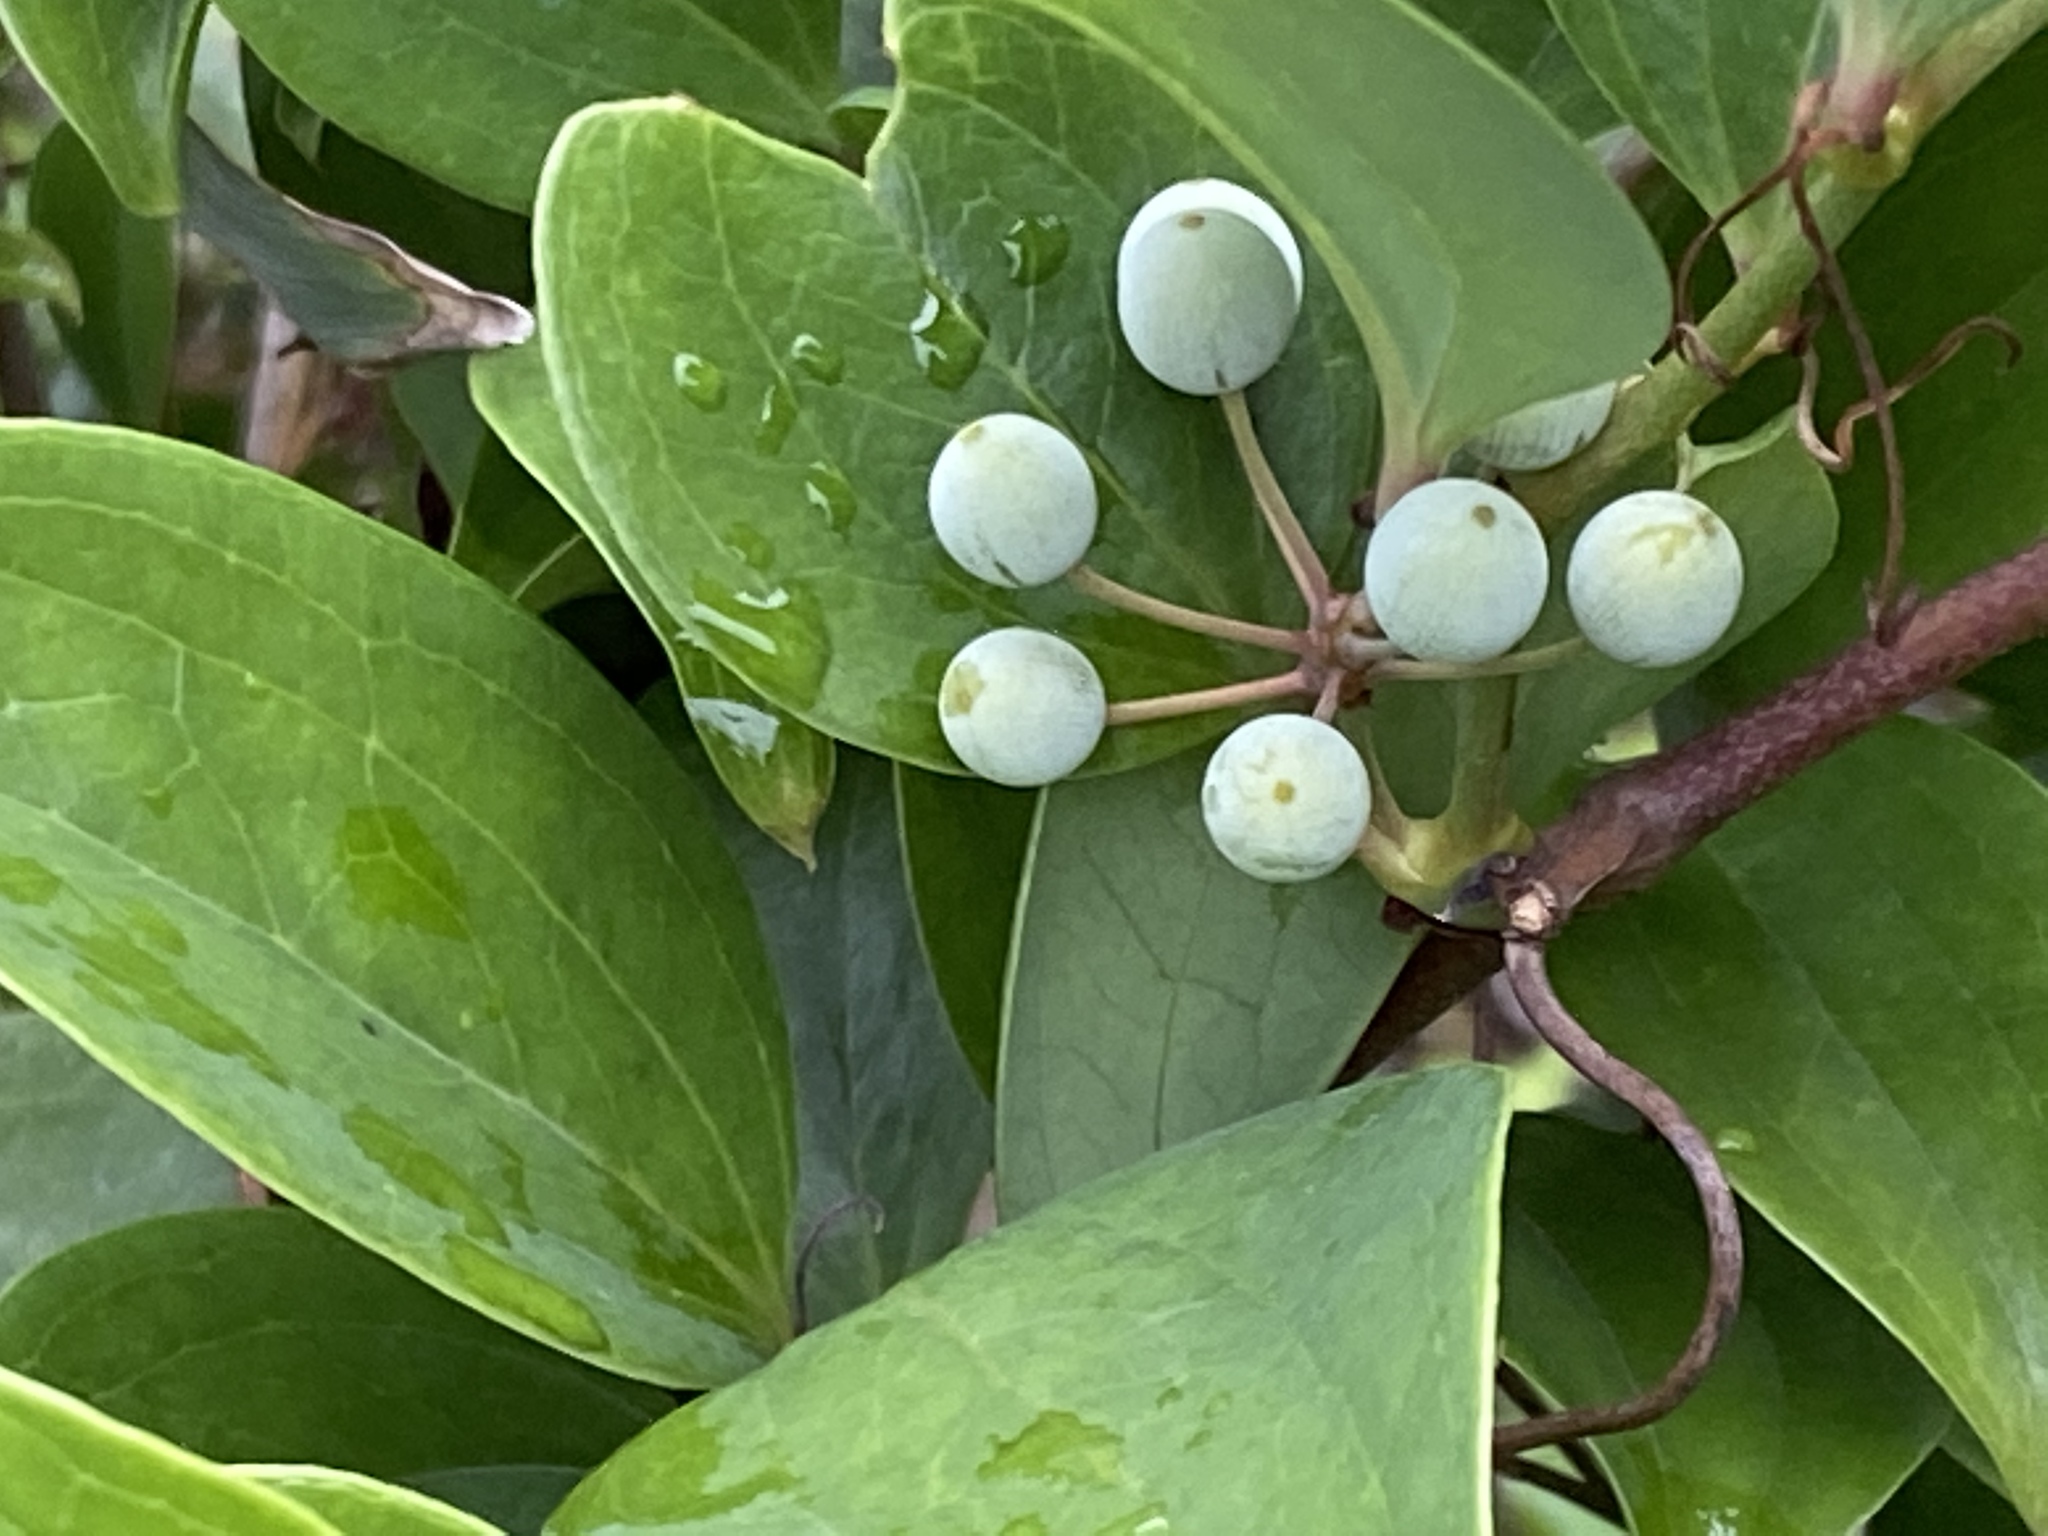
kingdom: Plantae
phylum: Tracheophyta
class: Liliopsida
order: Liliales
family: Smilacaceae
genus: Smilax
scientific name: Smilax china
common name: Chinaroot
